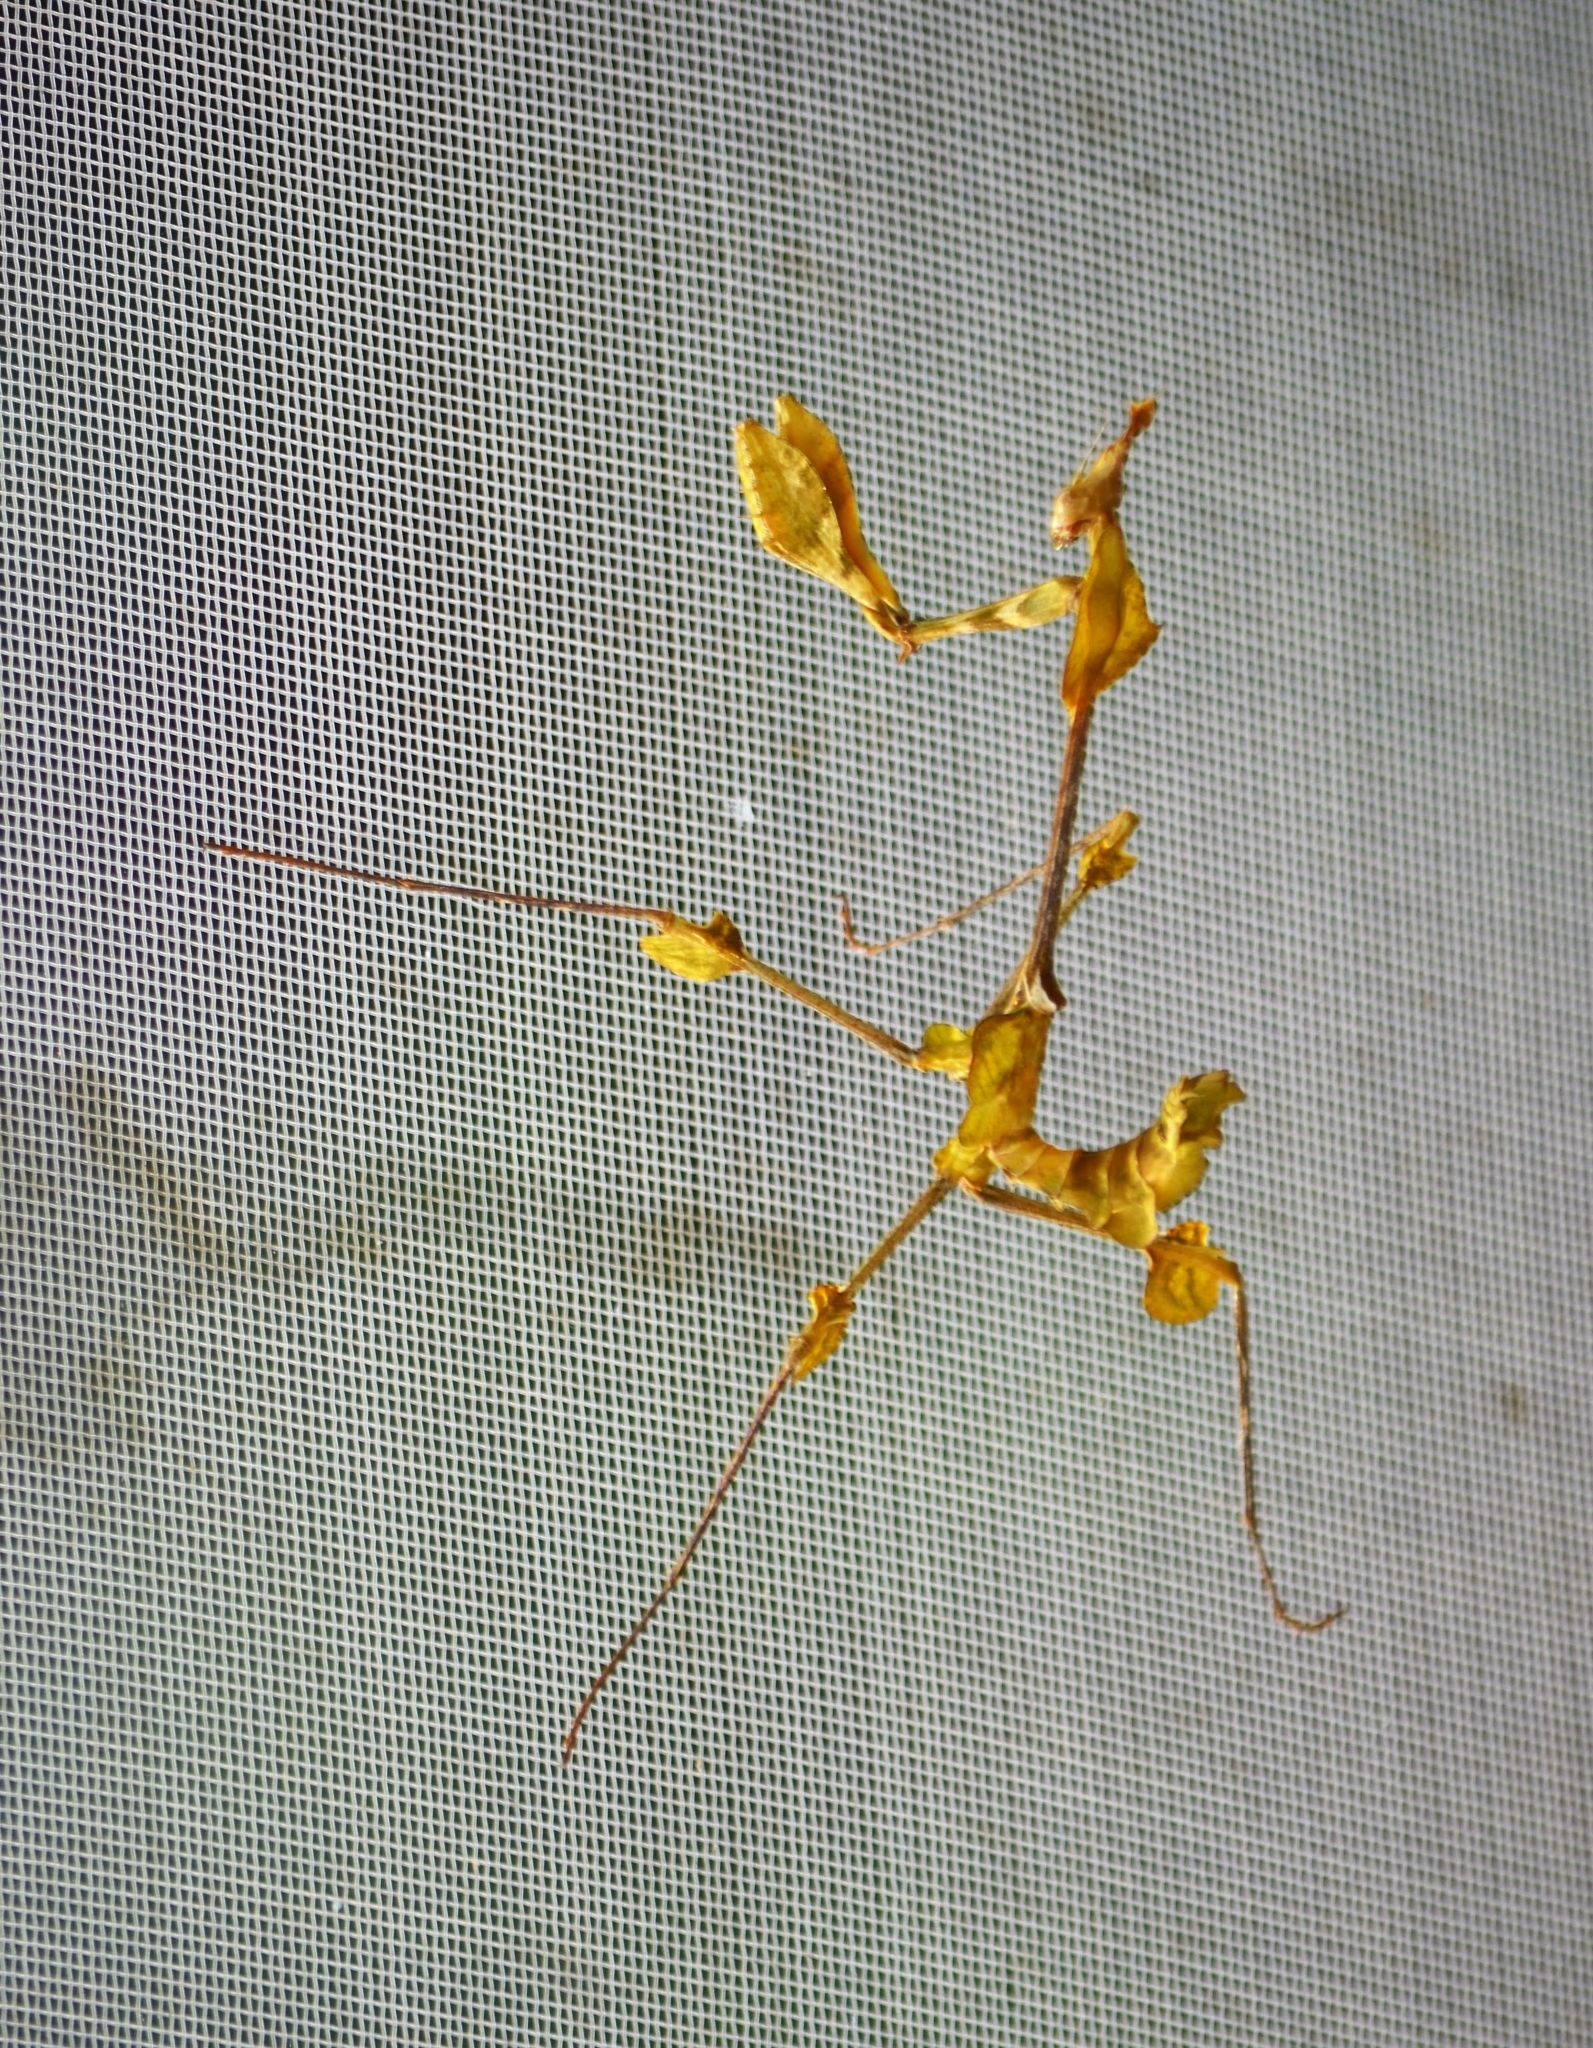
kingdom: Animalia
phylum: Arthropoda
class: Insecta
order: Mantodea
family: Empusidae
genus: Gongylus
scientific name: Gongylus gongylodes
